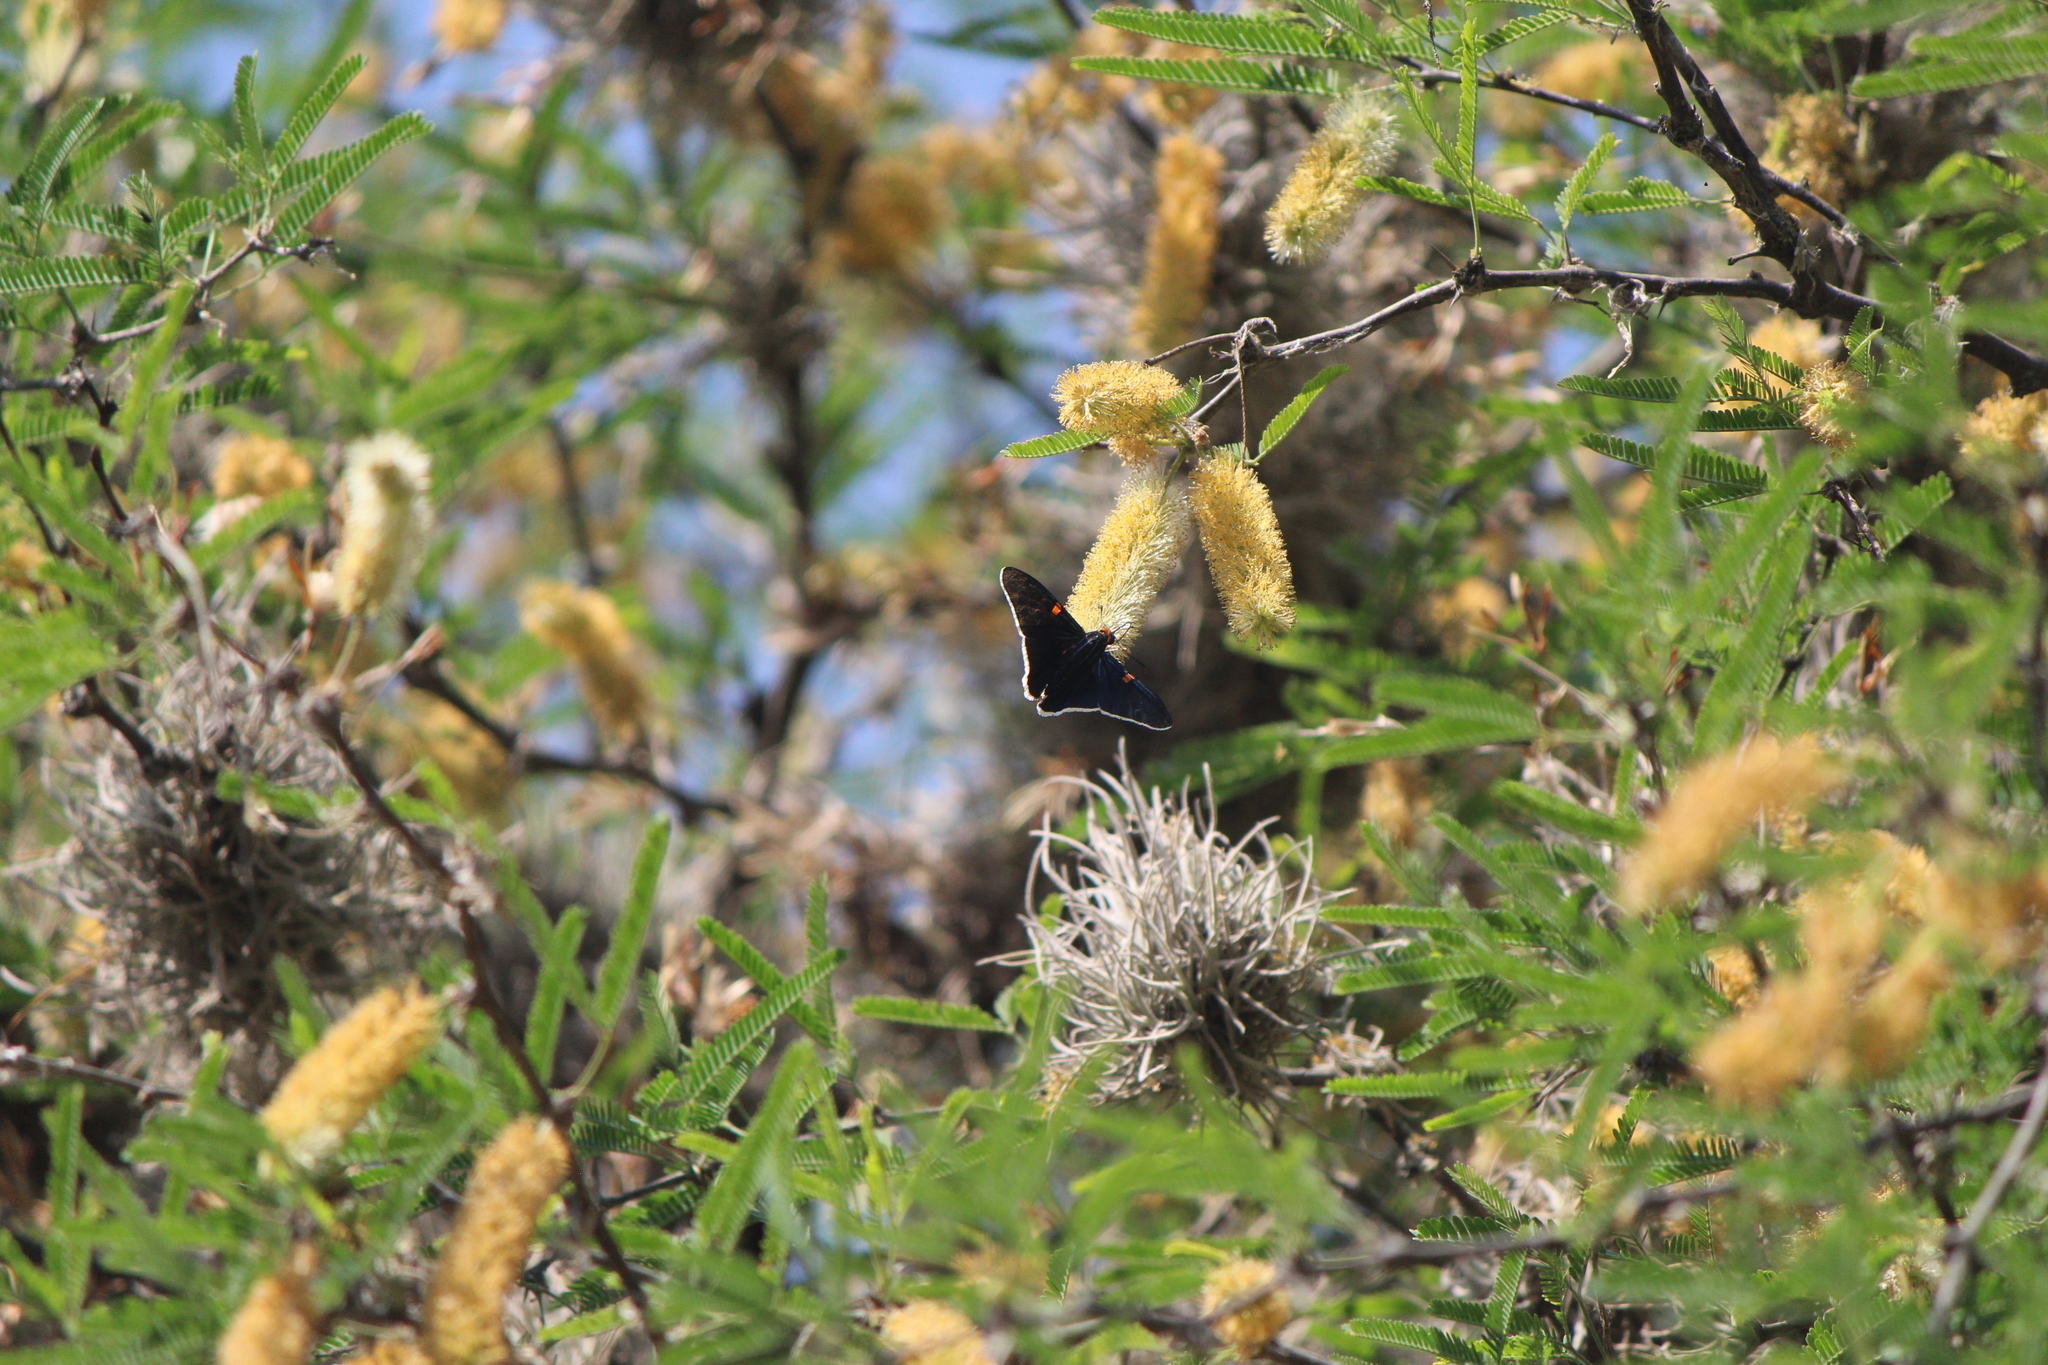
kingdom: Animalia
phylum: Arthropoda
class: Insecta
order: Lepidoptera
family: Hesperiidae
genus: Phocides
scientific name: Phocides lilea
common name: Guava skipper
